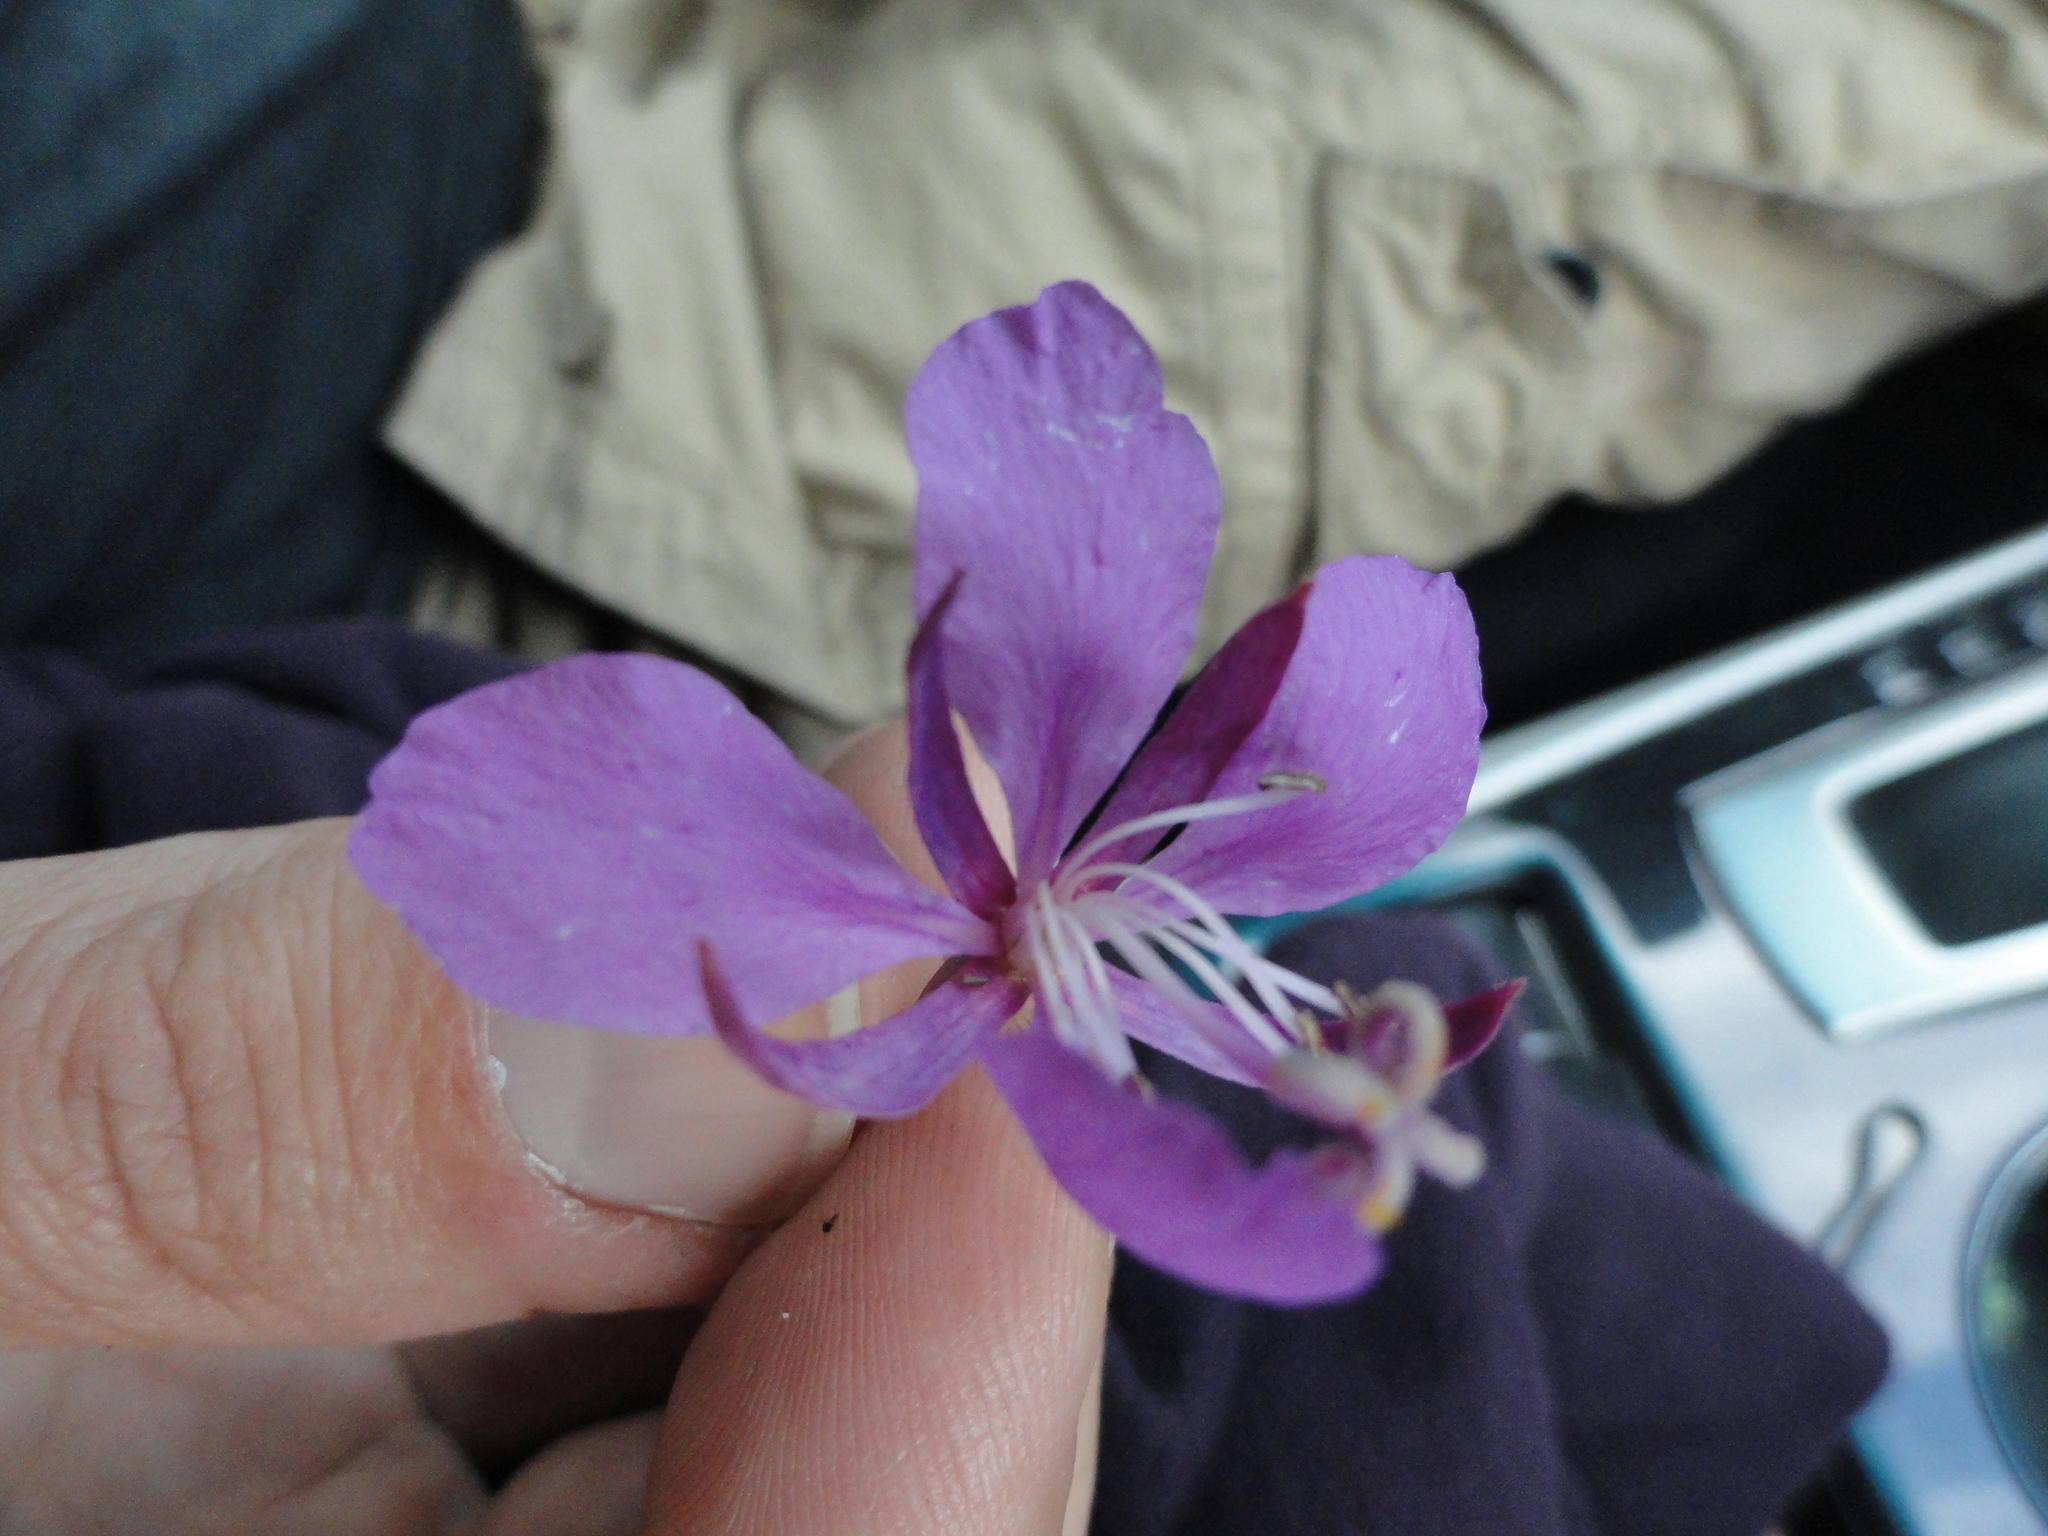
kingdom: Plantae
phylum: Tracheophyta
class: Magnoliopsida
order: Myrtales
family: Onagraceae
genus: Chamaenerion
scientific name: Chamaenerion angustifolium
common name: Fireweed
